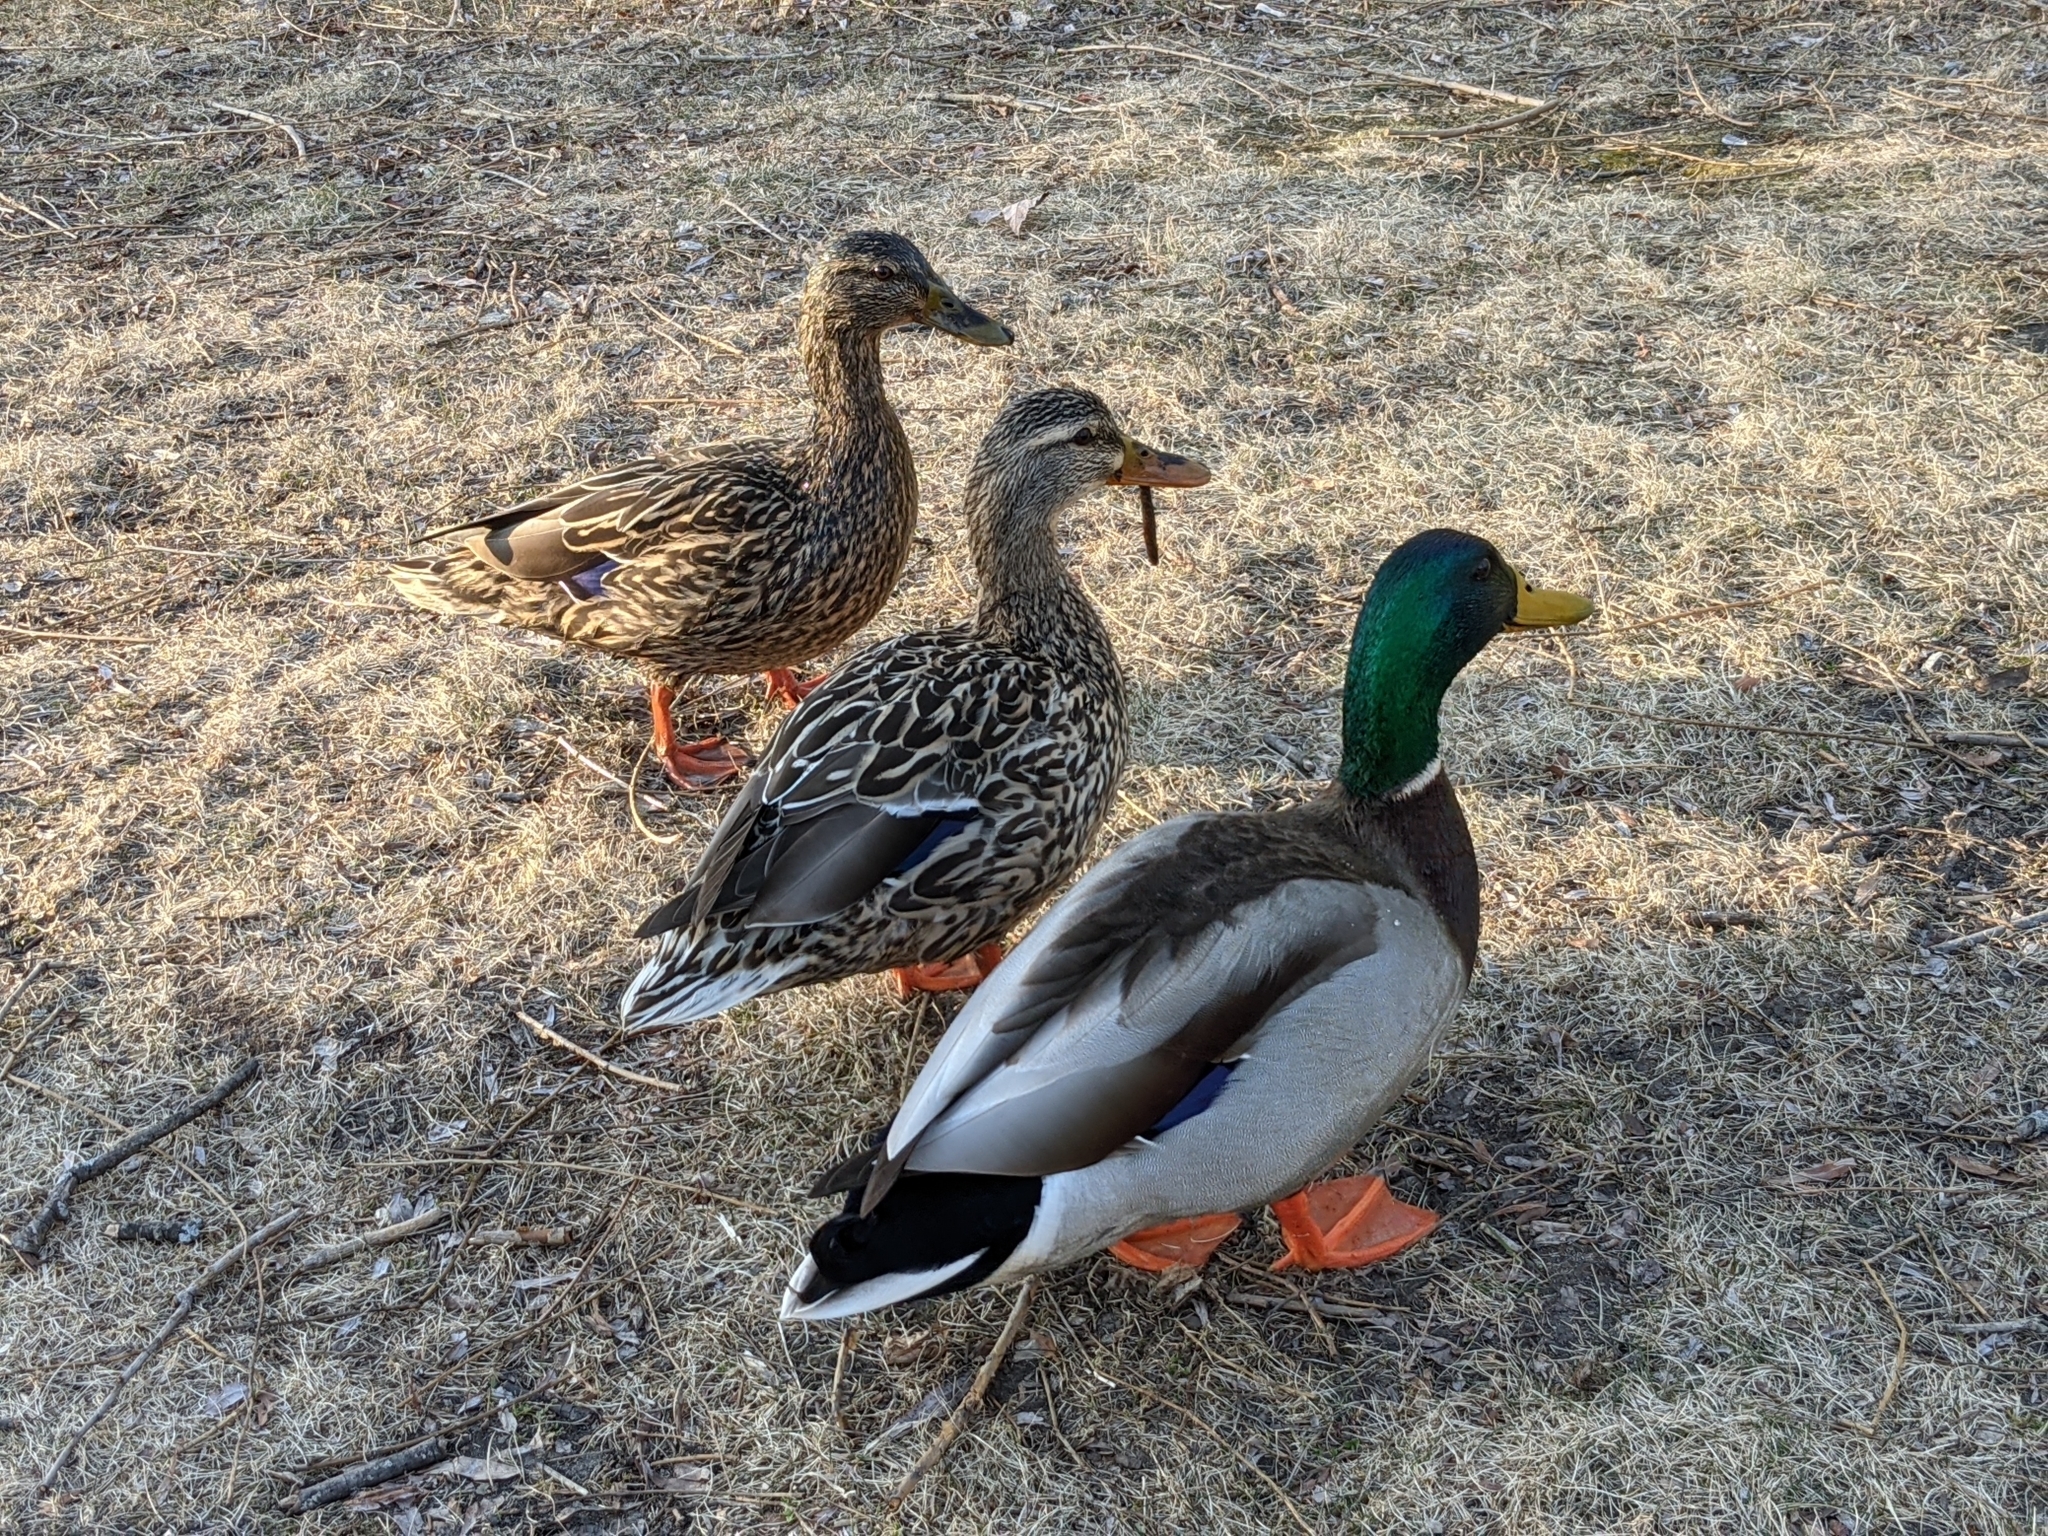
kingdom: Animalia
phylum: Chordata
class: Aves
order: Anseriformes
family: Anatidae
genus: Anas
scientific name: Anas platyrhynchos
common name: Mallard
